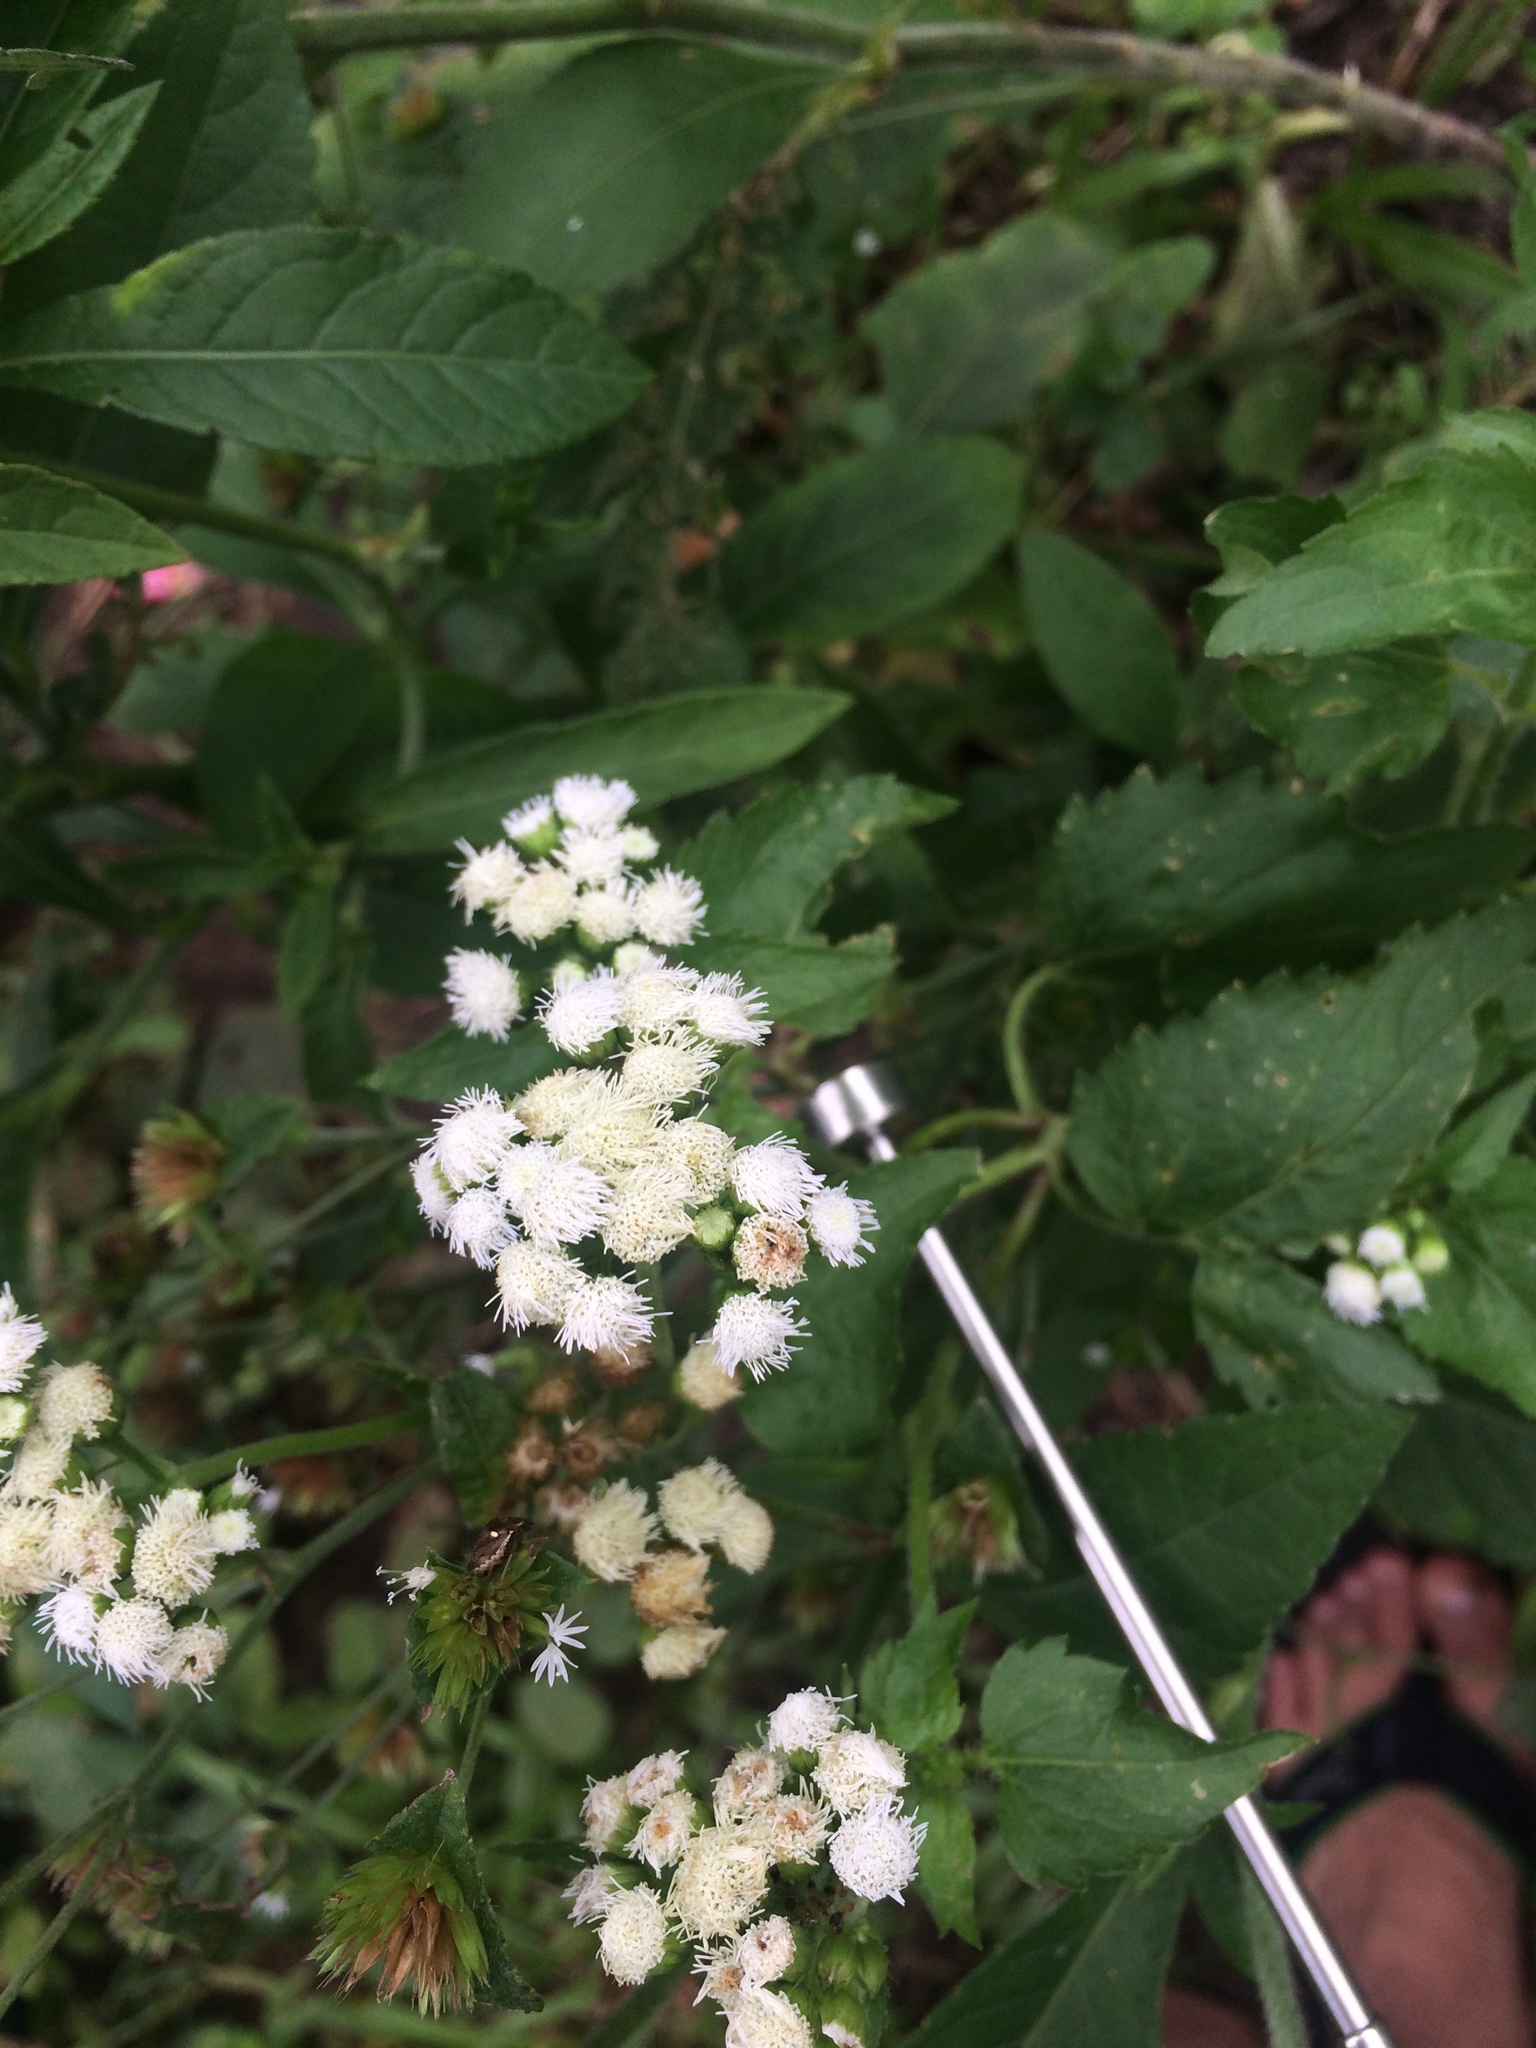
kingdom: Plantae
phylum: Tracheophyta
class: Magnoliopsida
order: Asterales
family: Asteraceae
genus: Ageratum
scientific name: Ageratum conyzoides
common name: Tropical whiteweed
